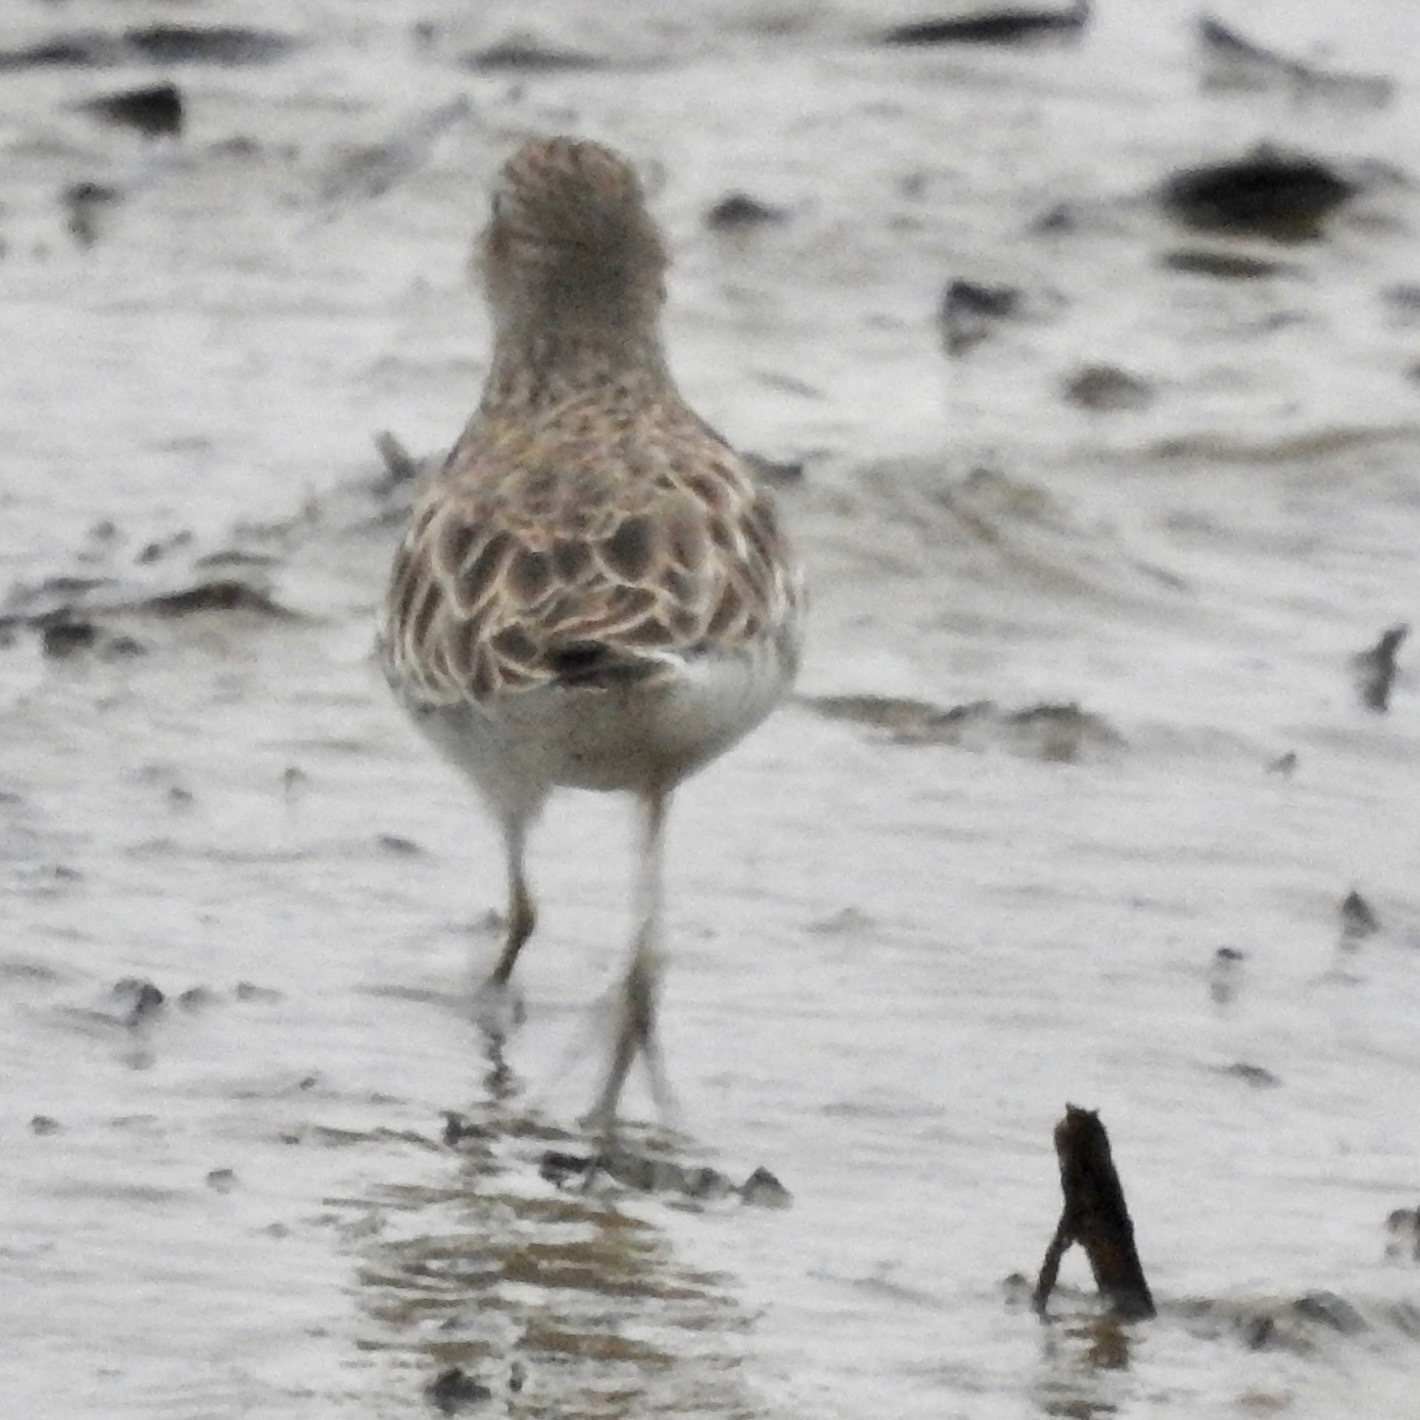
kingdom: Animalia
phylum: Chordata
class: Aves
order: Charadriiformes
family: Scolopacidae
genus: Calidris
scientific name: Calidris minutilla
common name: Least sandpiper
